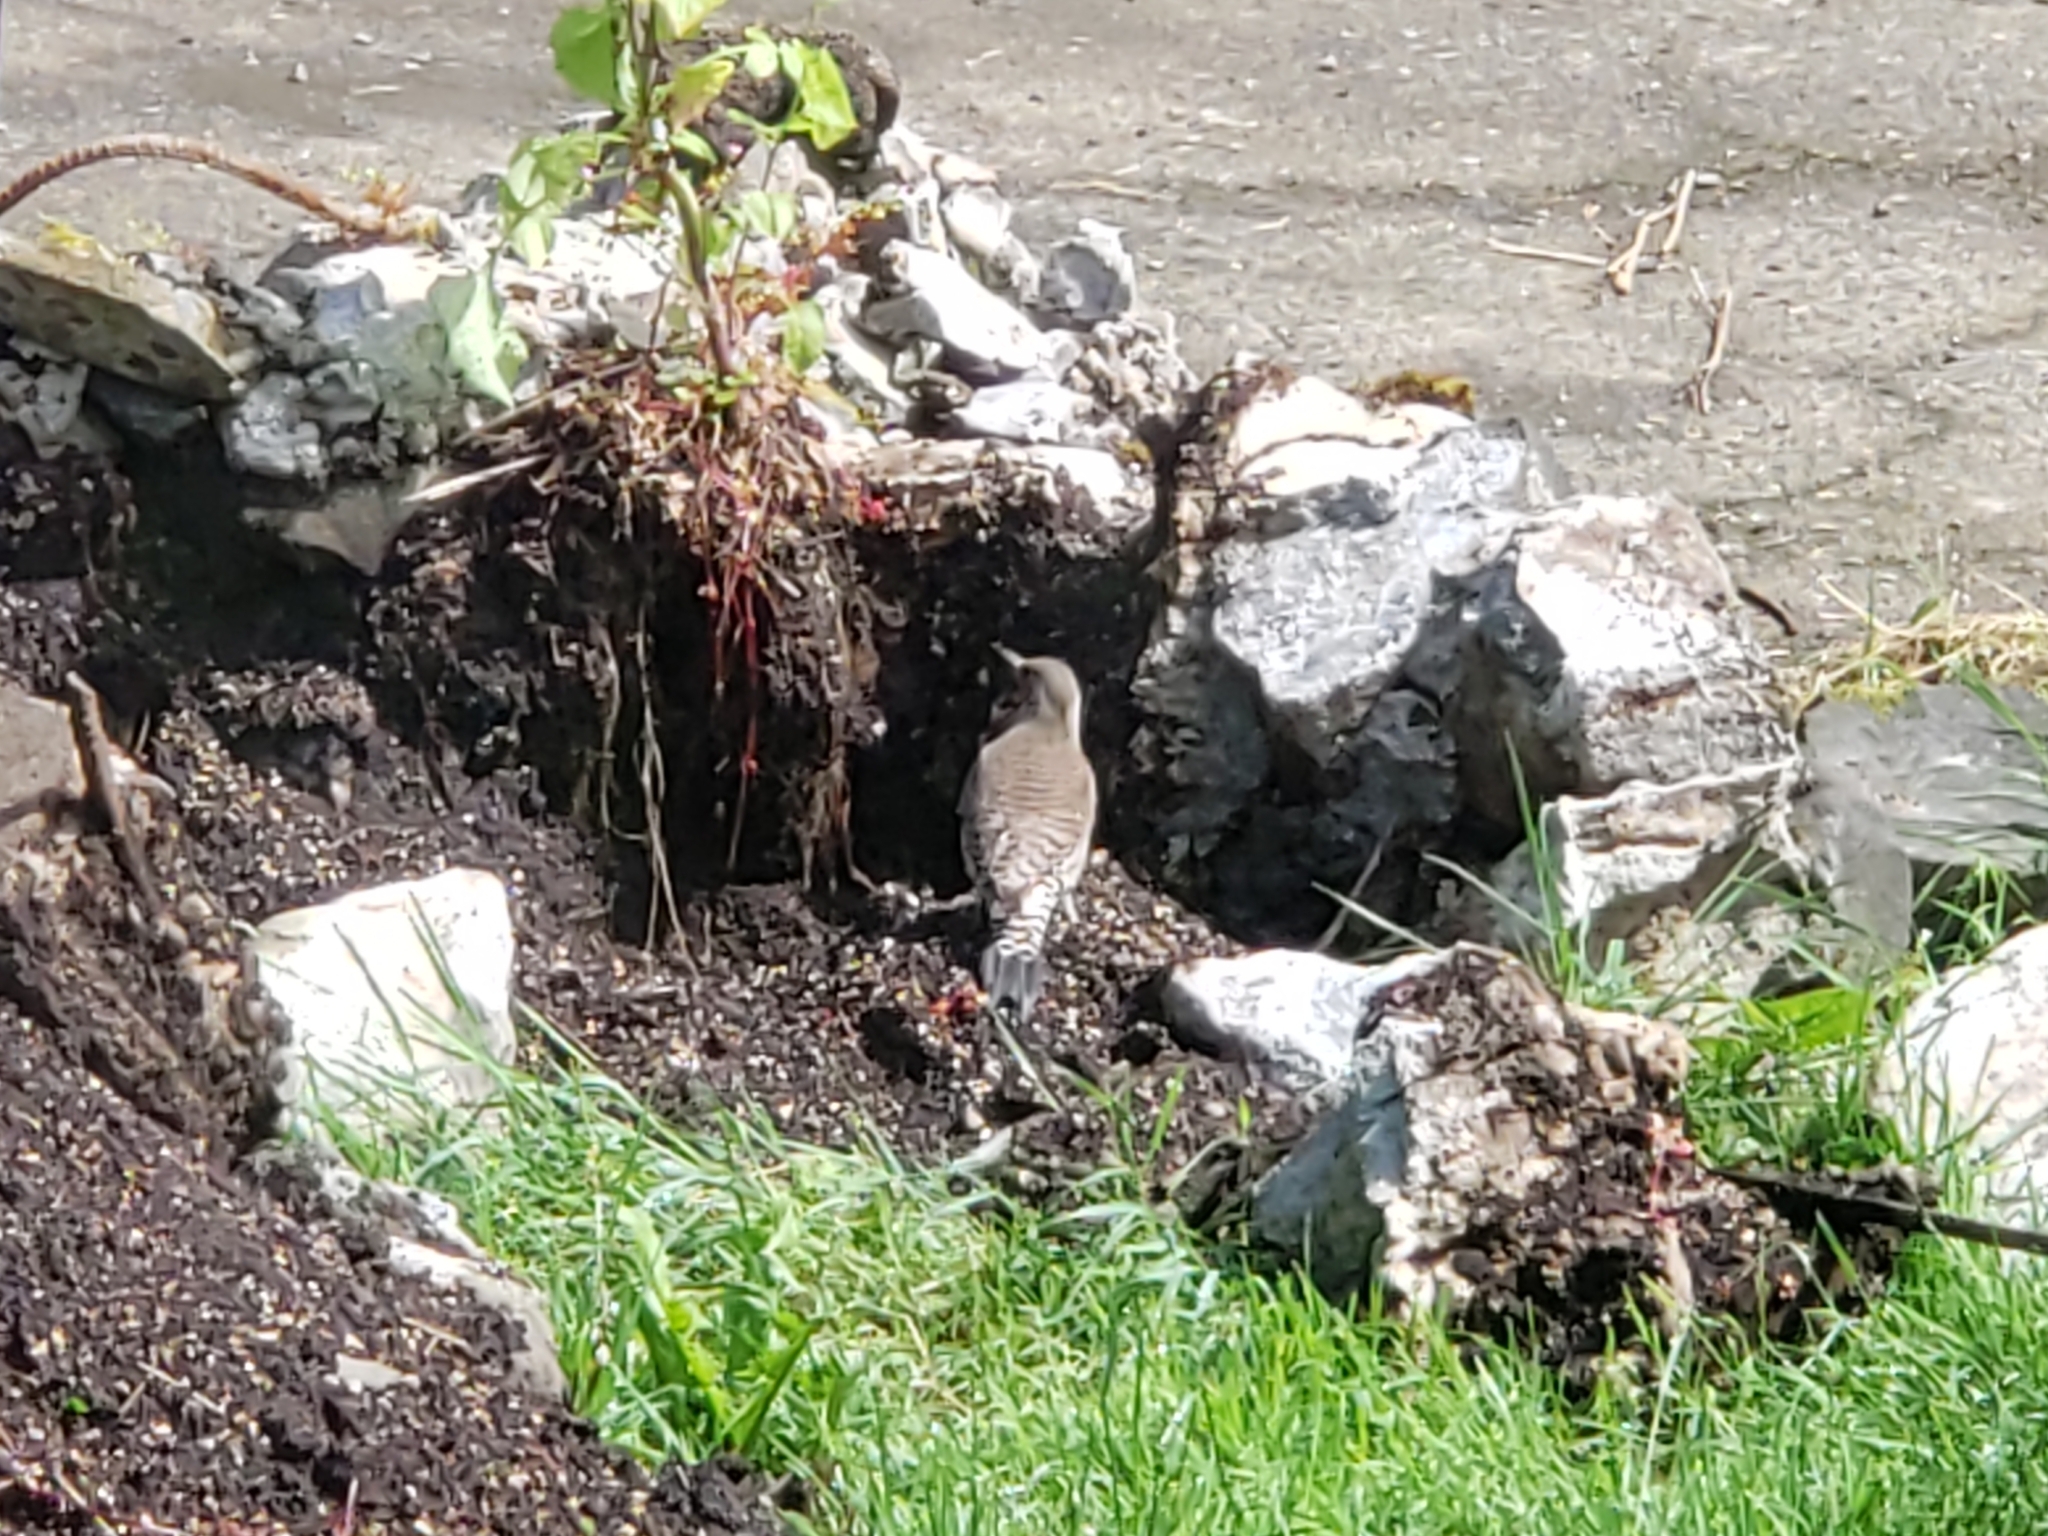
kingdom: Animalia
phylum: Chordata
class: Aves
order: Piciformes
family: Picidae
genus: Colaptes
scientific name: Colaptes auratus
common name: Northern flicker
